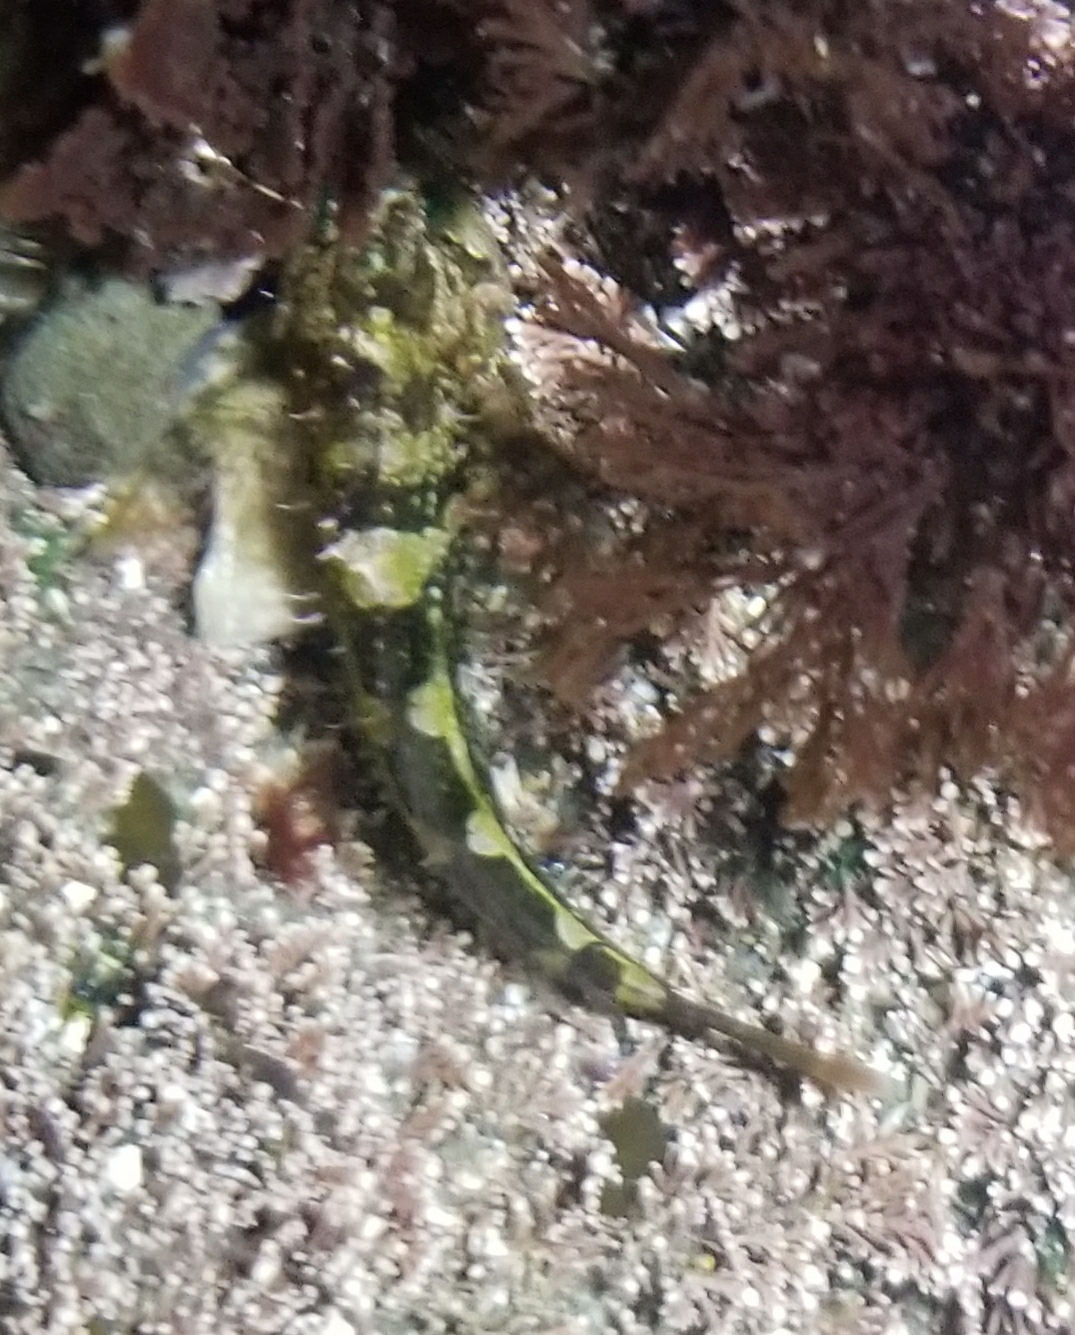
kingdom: Animalia
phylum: Chordata
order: Scorpaeniformes
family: Cottidae
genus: Oligocottus
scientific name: Oligocottus snyderi
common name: Fluffy sculpin
